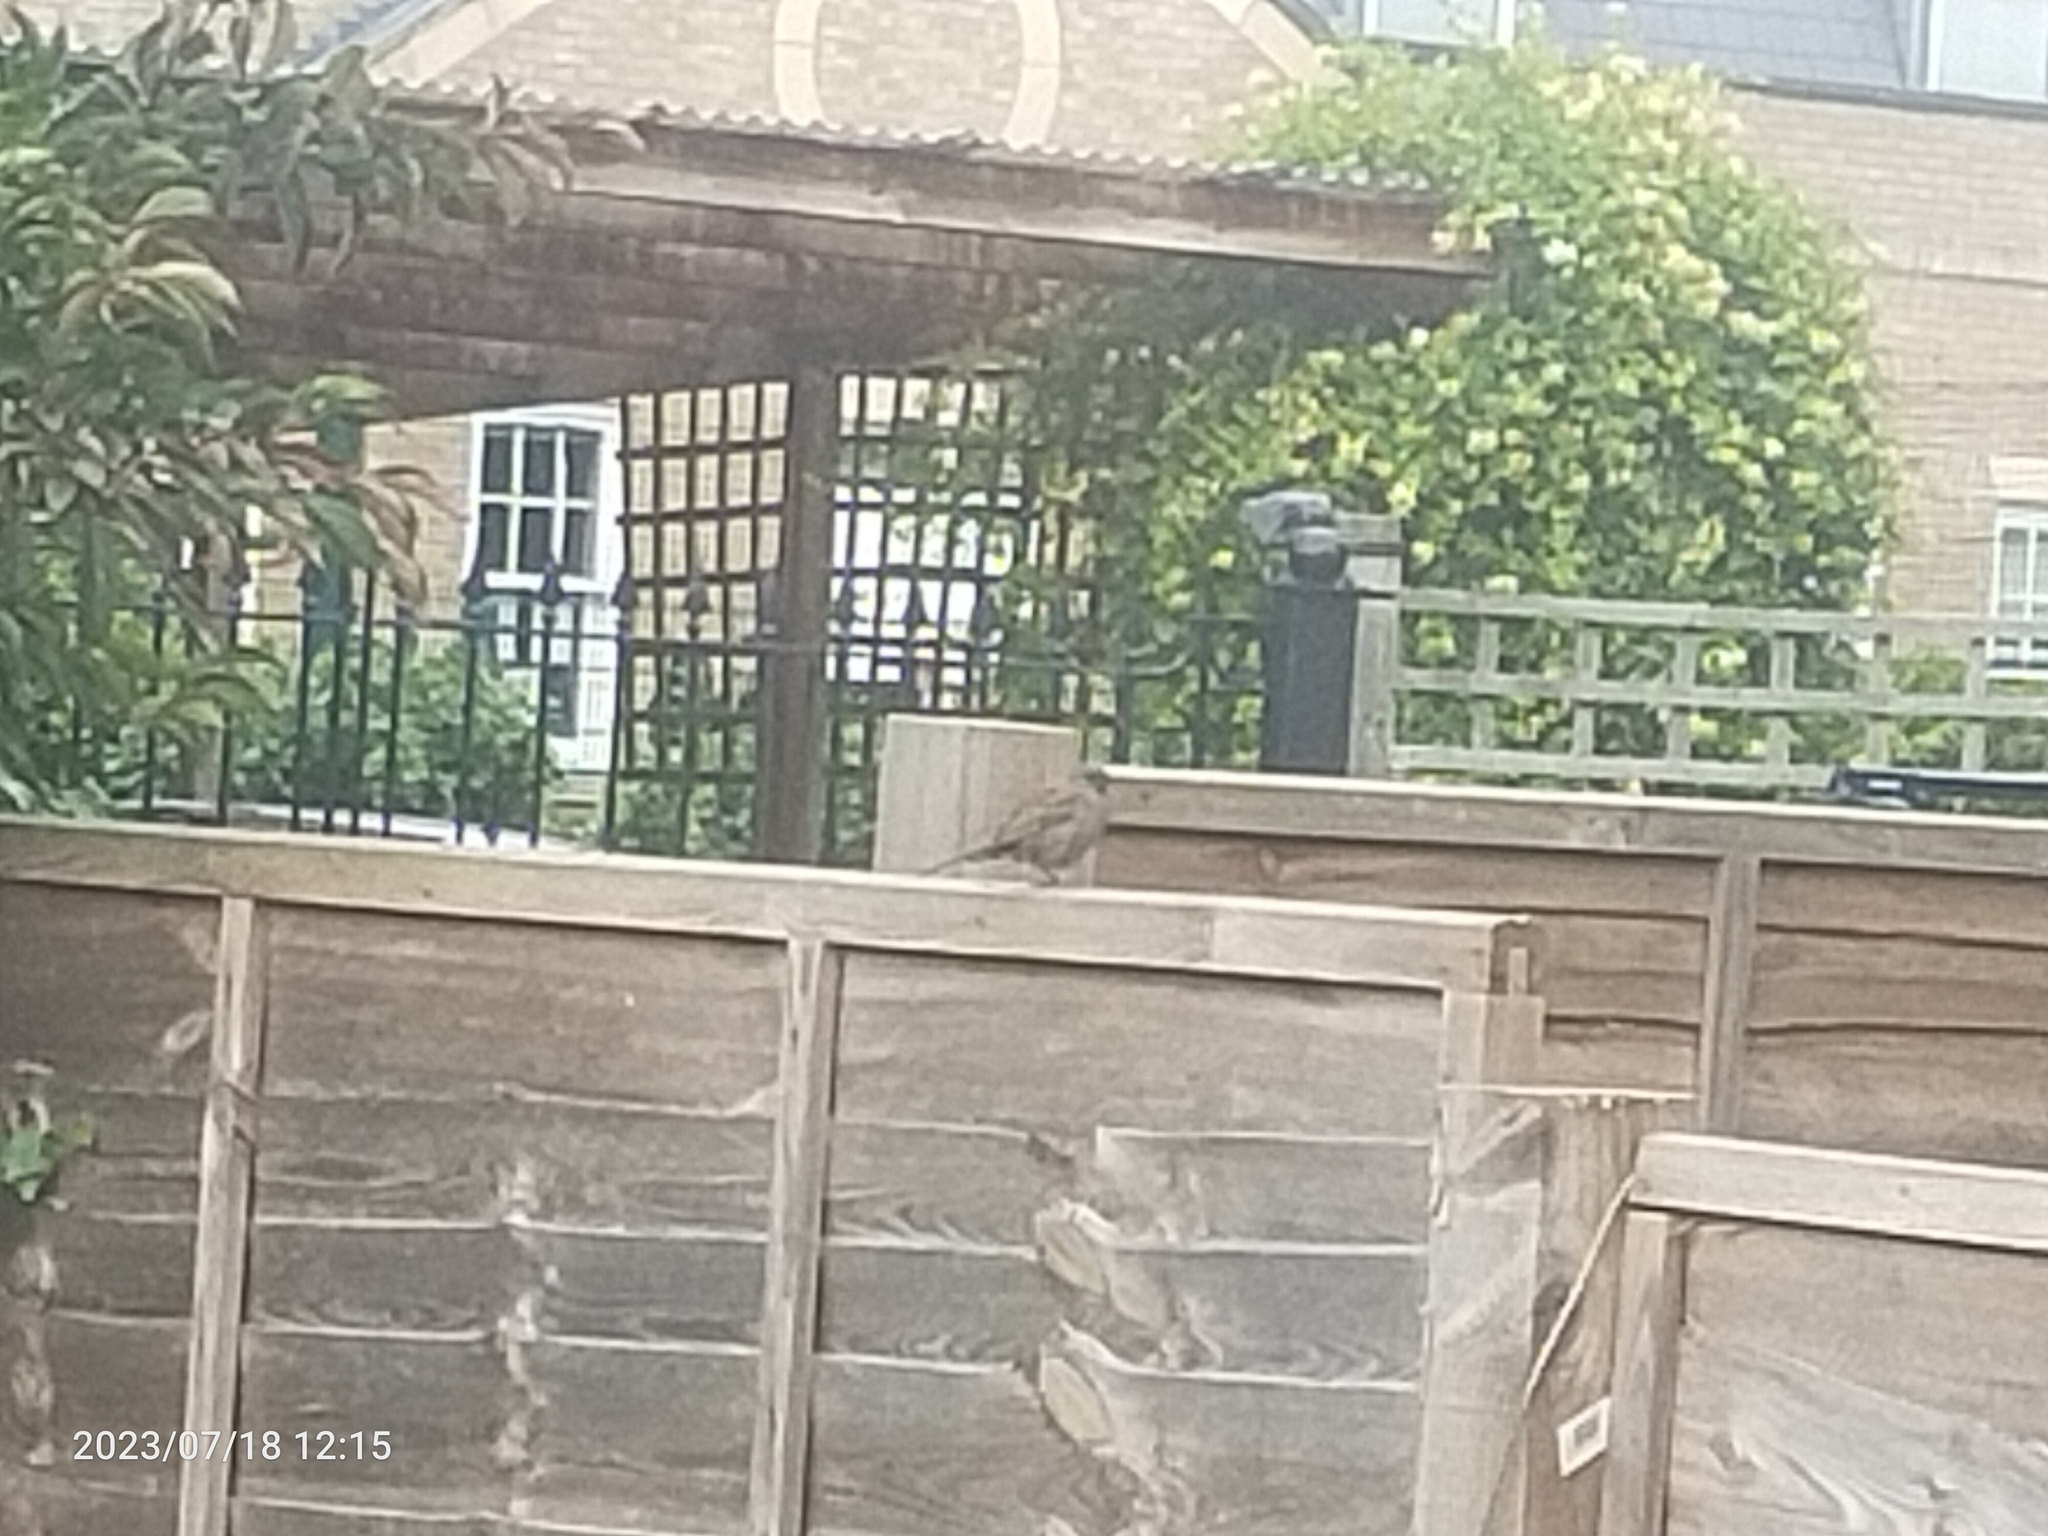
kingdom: Animalia
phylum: Chordata
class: Aves
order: Passeriformes
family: Prunellidae
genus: Prunella
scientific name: Prunella modularis
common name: Dunnock
